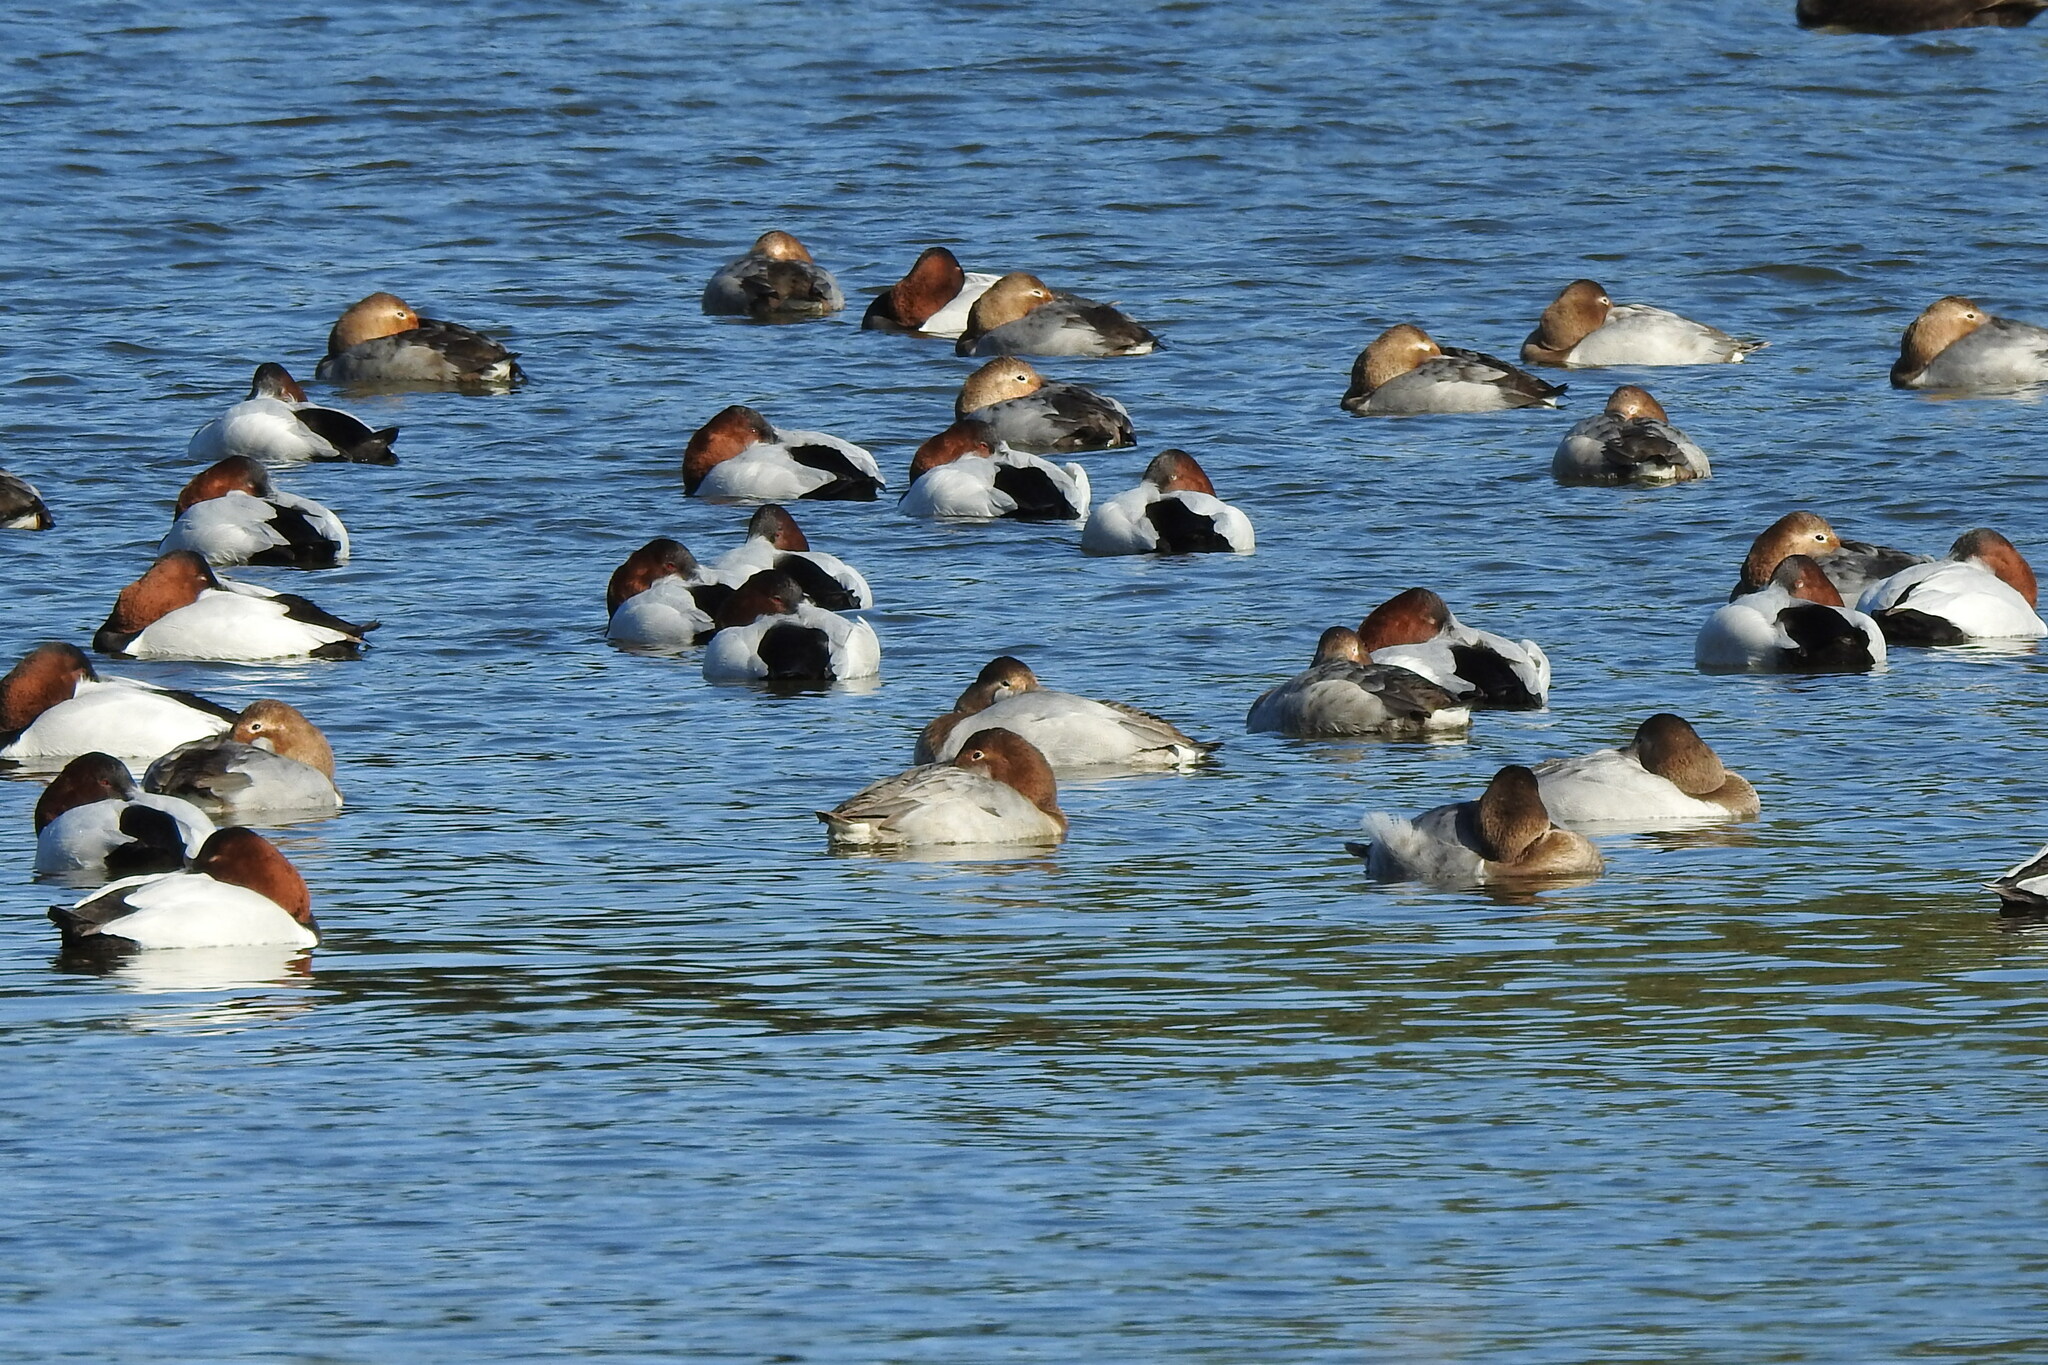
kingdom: Animalia
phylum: Chordata
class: Aves
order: Anseriformes
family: Anatidae
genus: Aythya
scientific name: Aythya valisineria
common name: Canvasback
